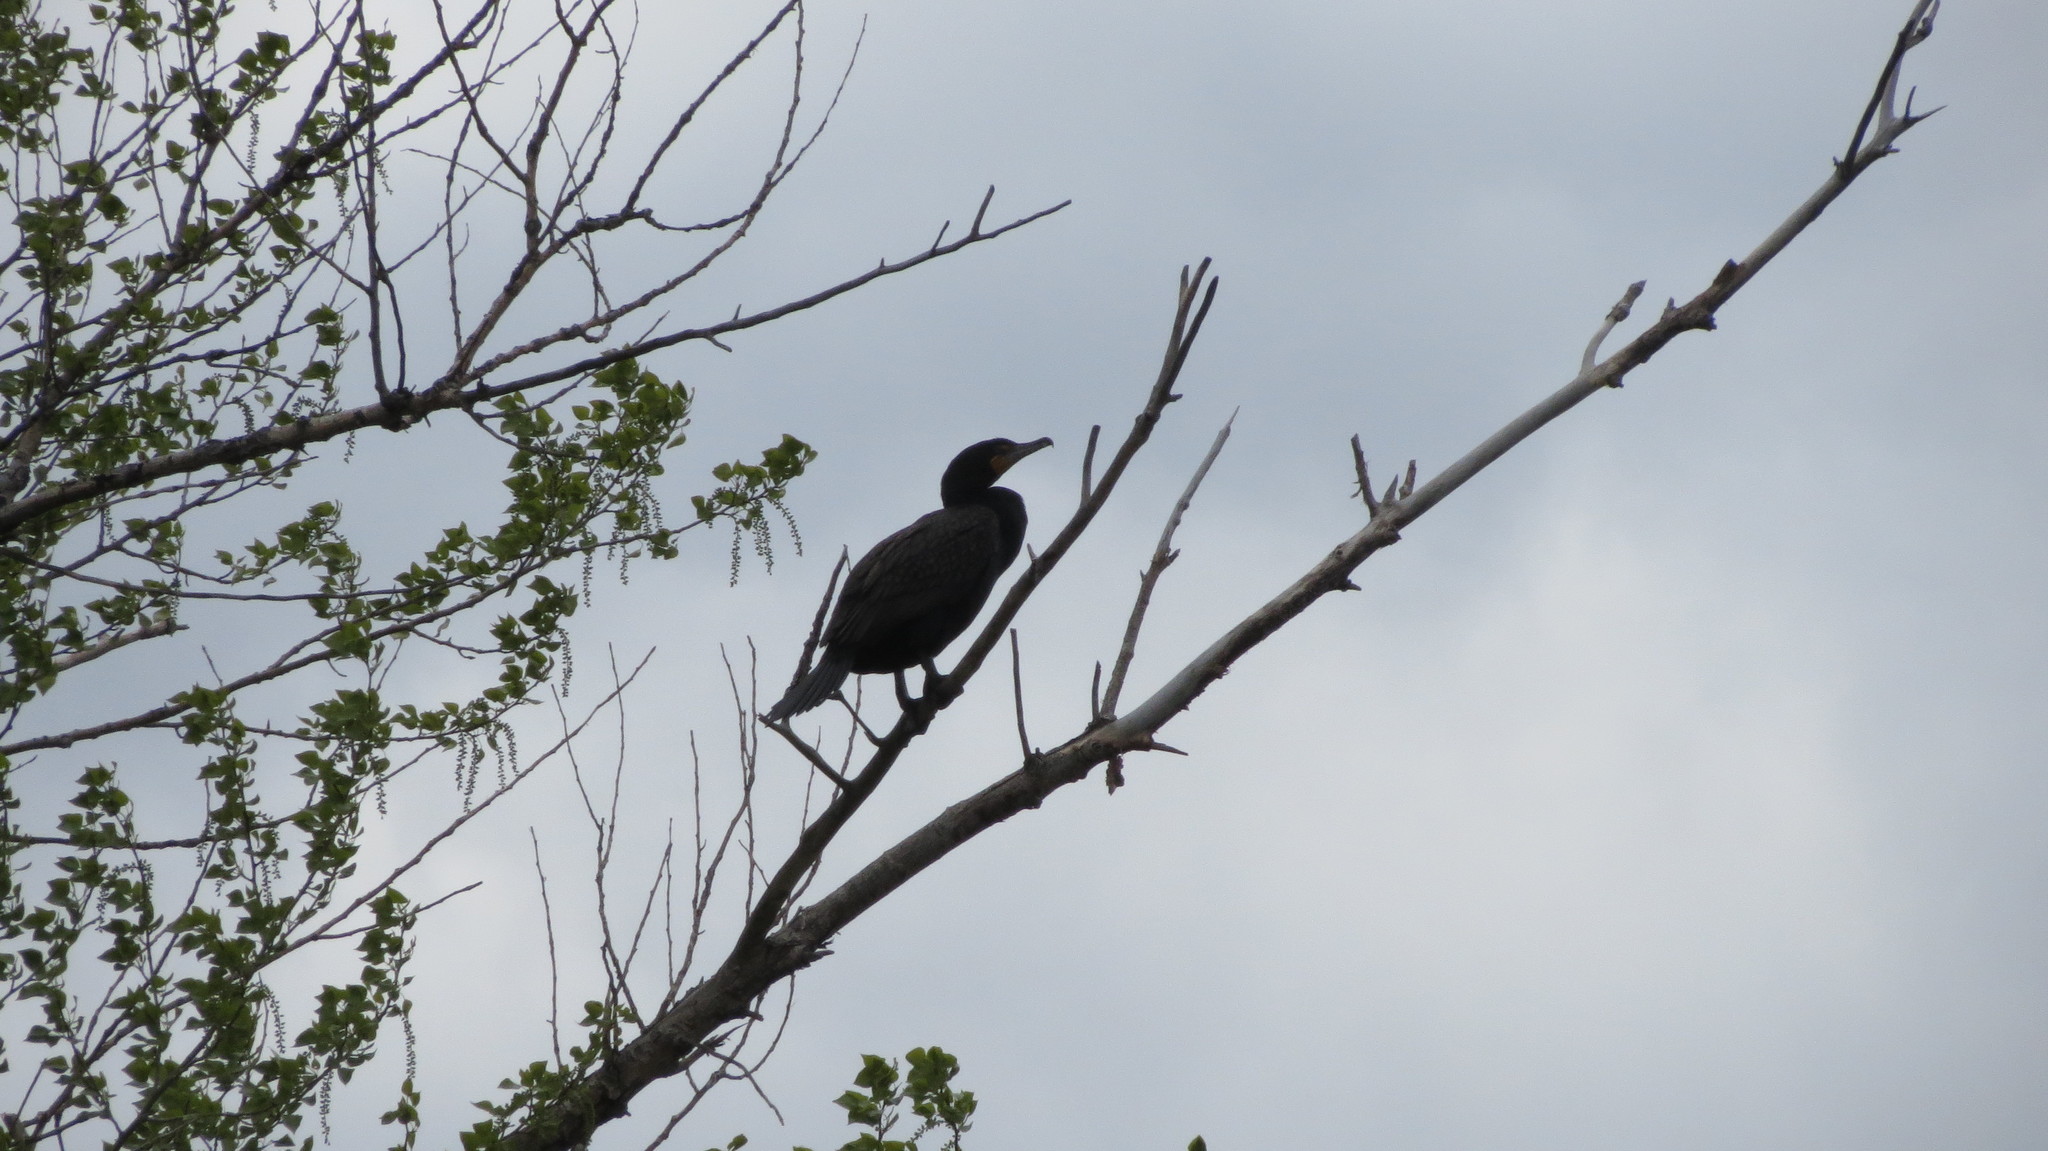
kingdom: Animalia
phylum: Chordata
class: Aves
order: Suliformes
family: Phalacrocoracidae
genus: Phalacrocorax
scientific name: Phalacrocorax auritus
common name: Double-crested cormorant
